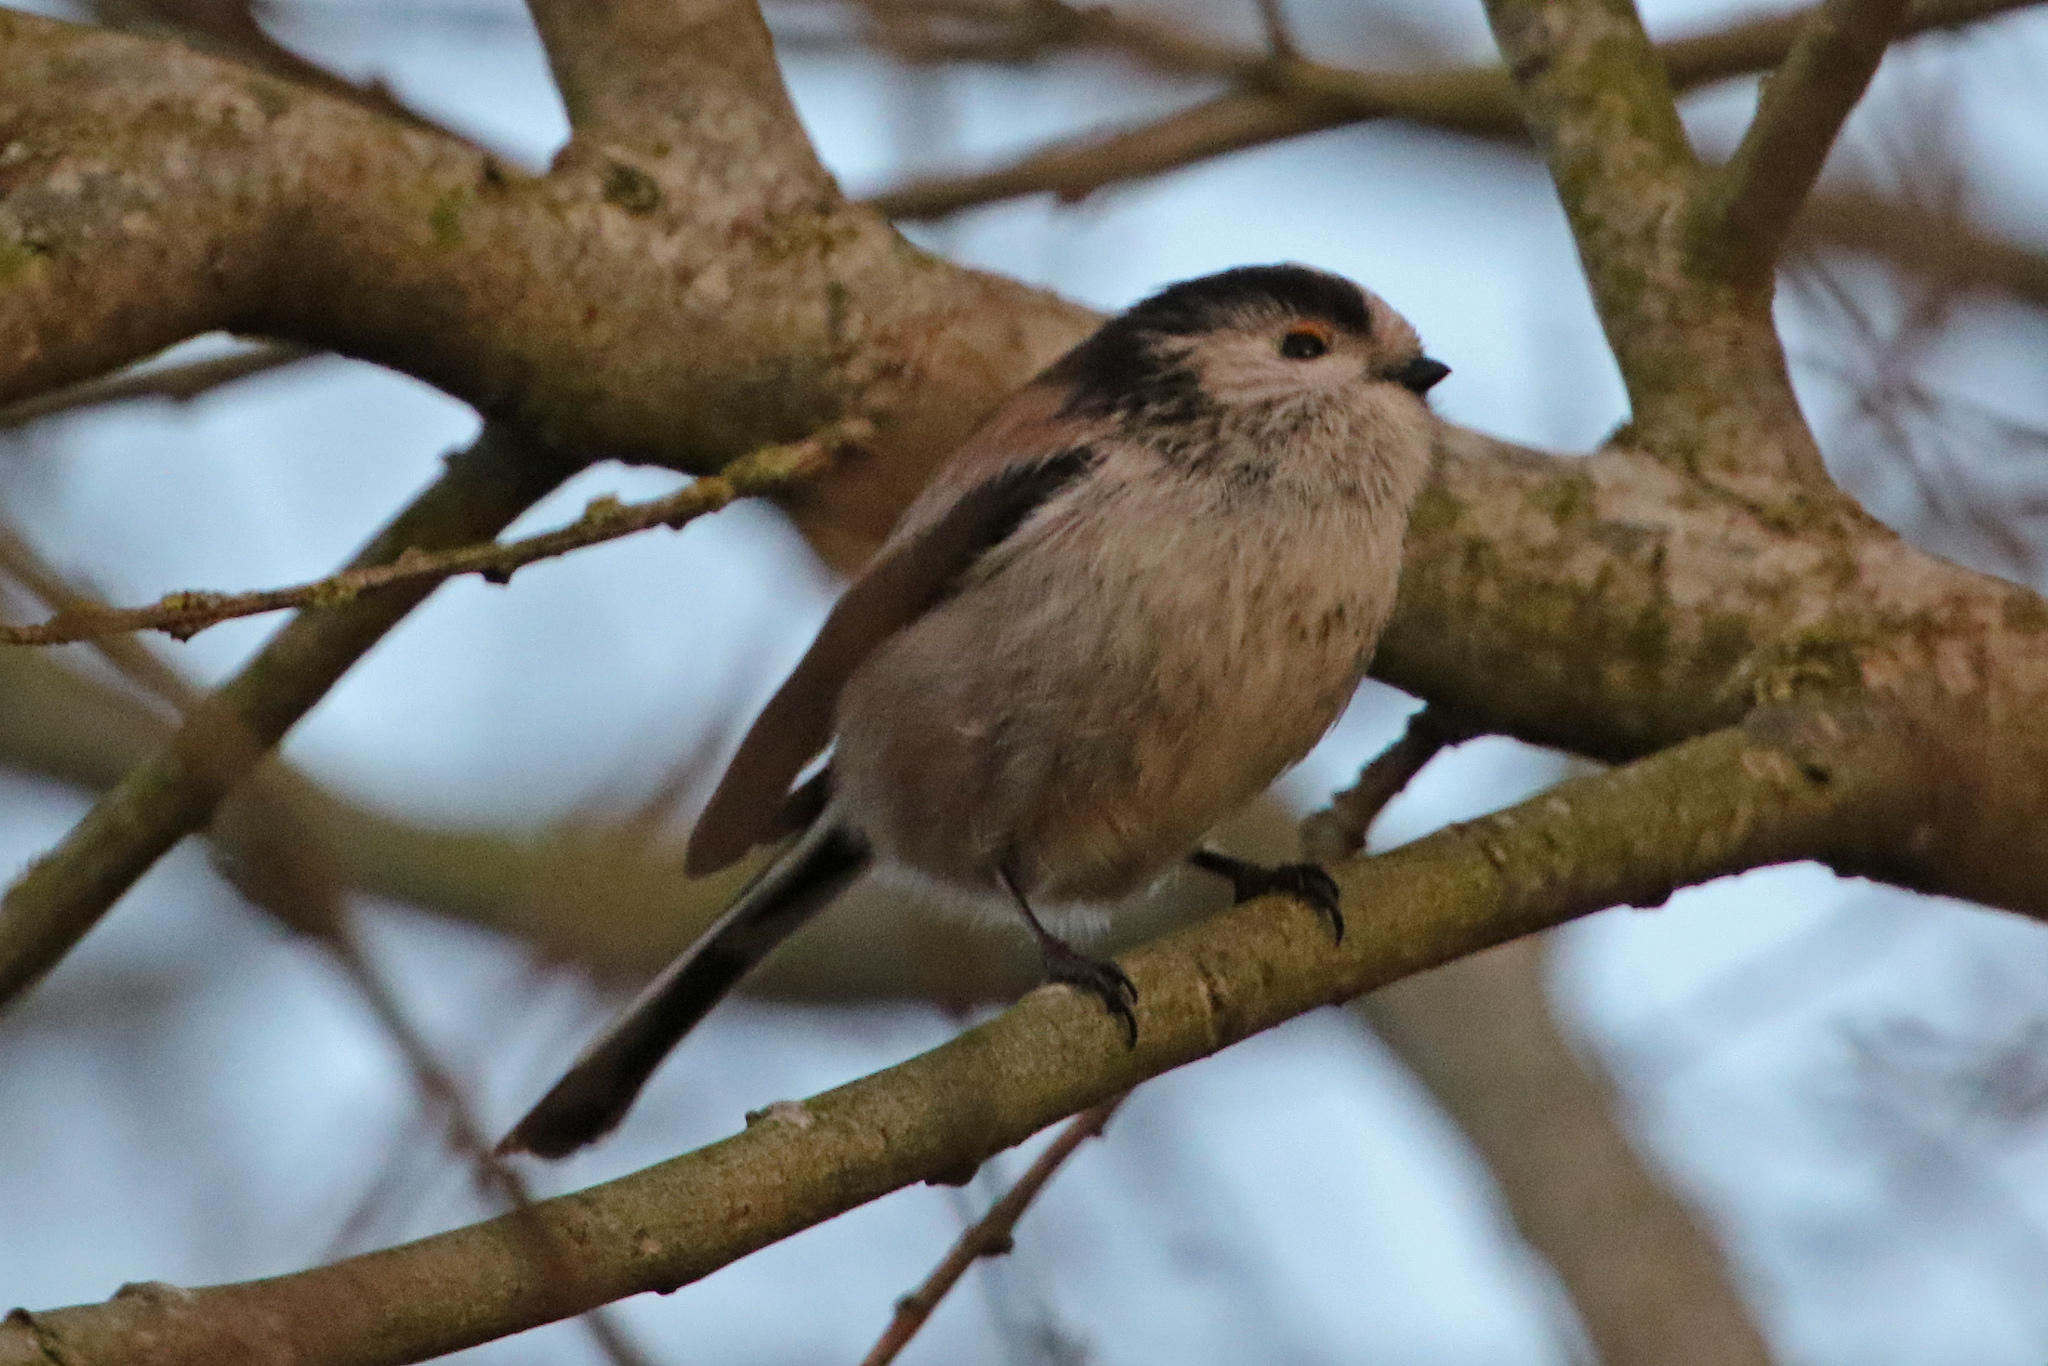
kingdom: Animalia
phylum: Chordata
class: Aves
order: Passeriformes
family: Aegithalidae
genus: Aegithalos
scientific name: Aegithalos caudatus
